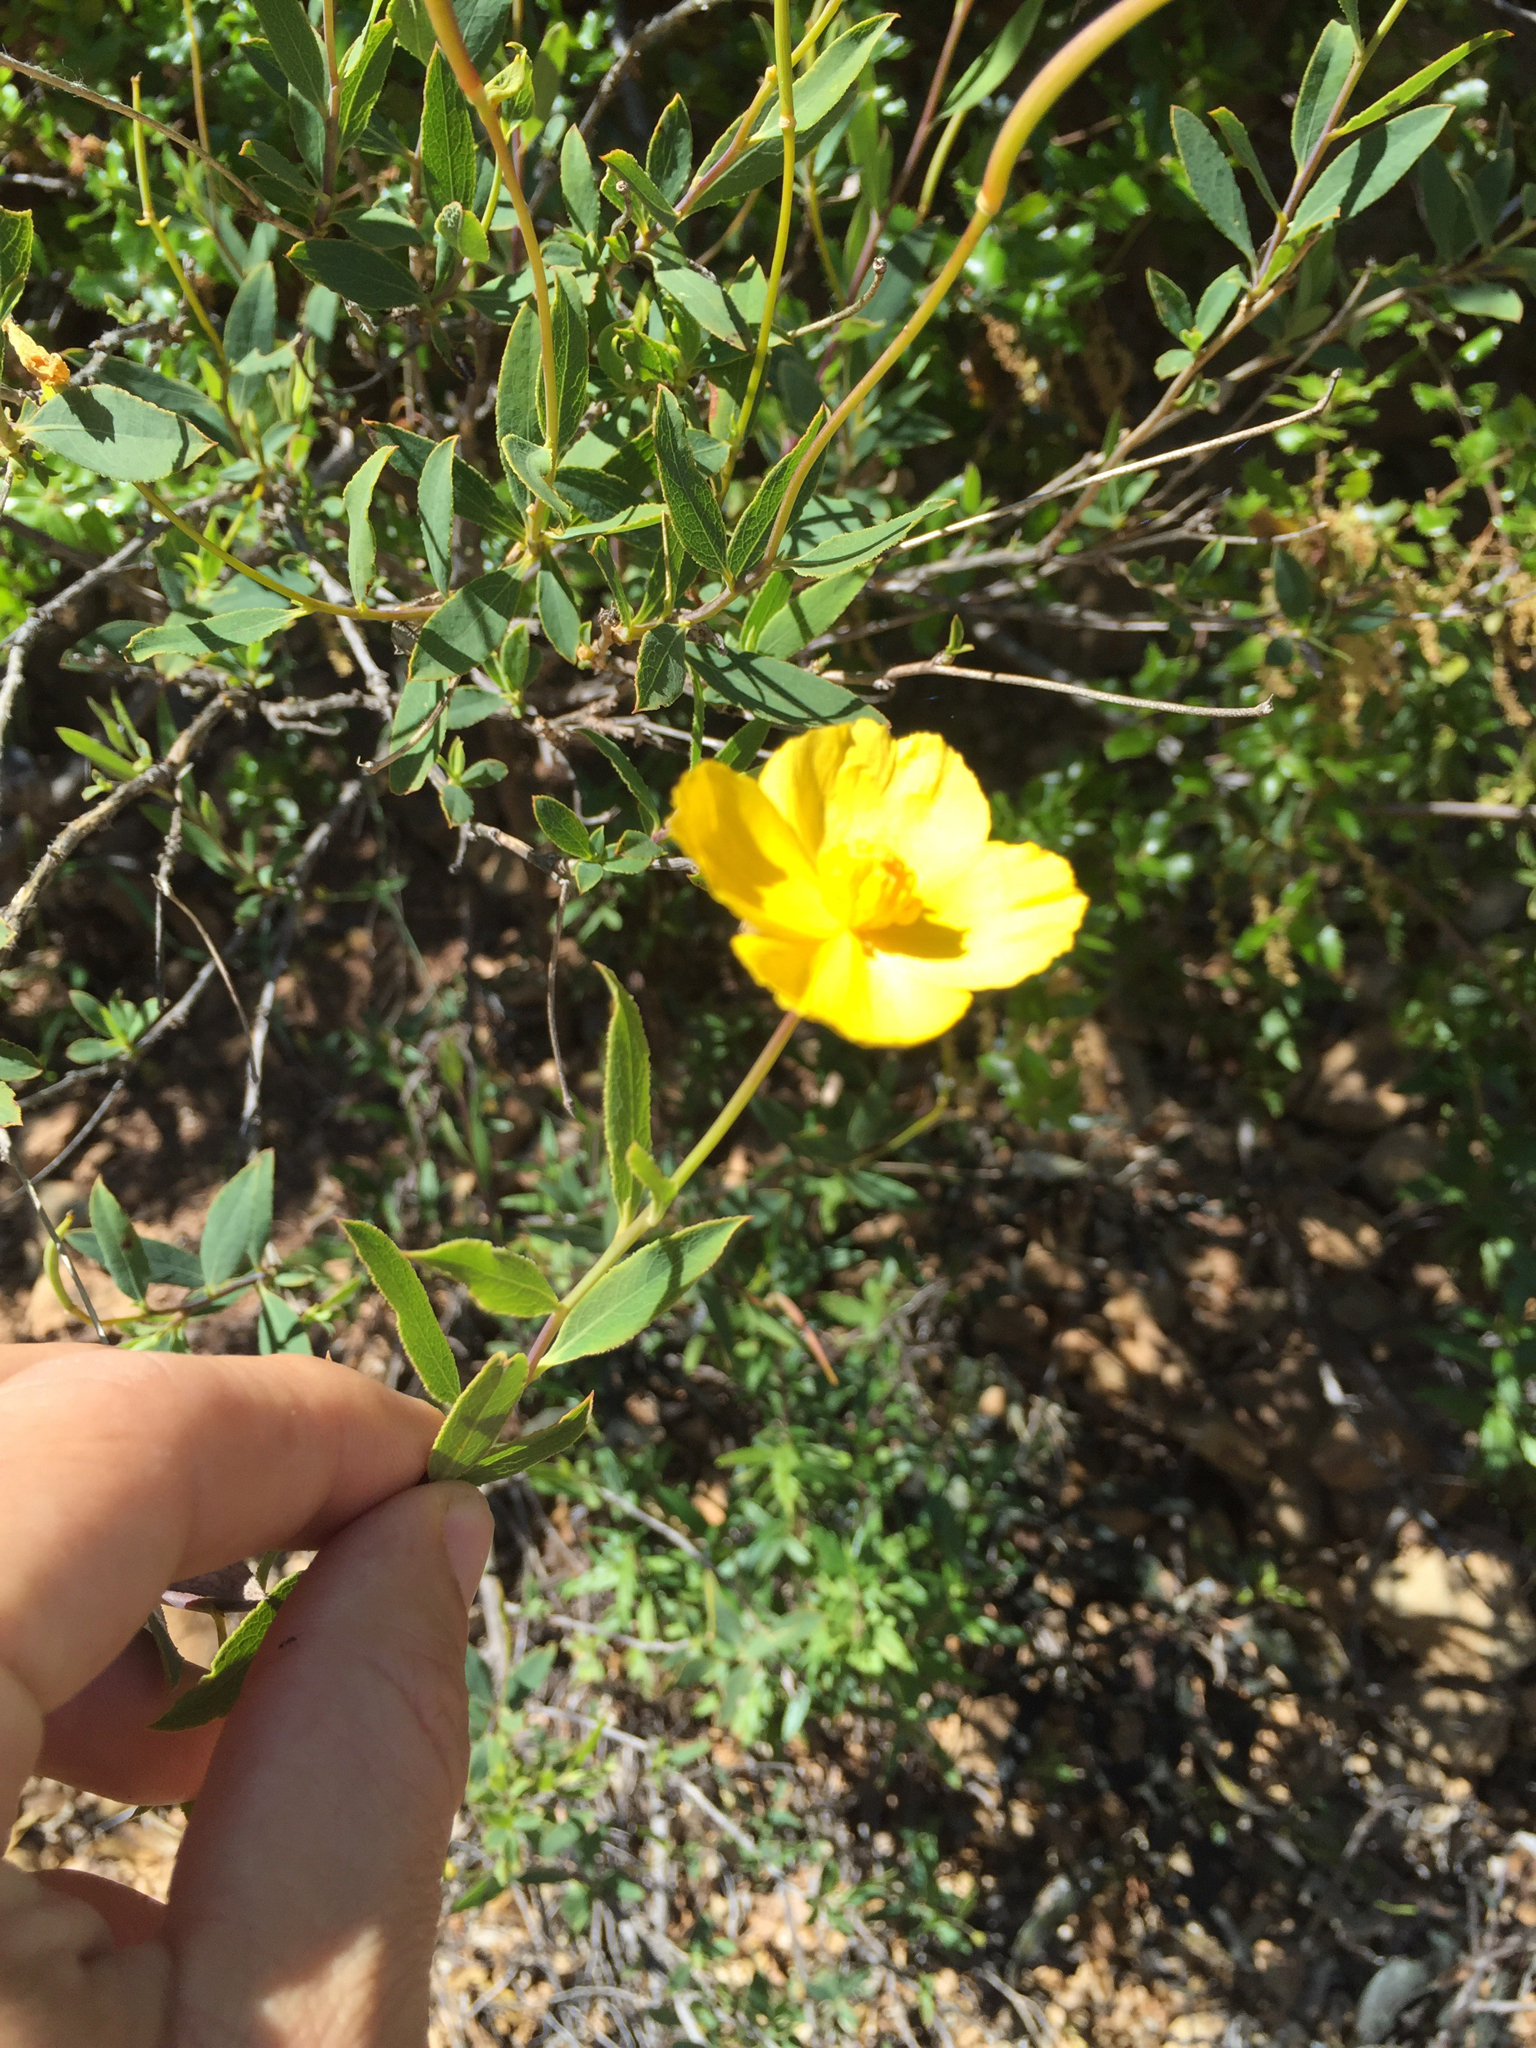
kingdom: Plantae
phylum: Tracheophyta
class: Magnoliopsida
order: Ranunculales
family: Papaveraceae
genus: Dendromecon
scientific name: Dendromecon rigida
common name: Tree poppy
